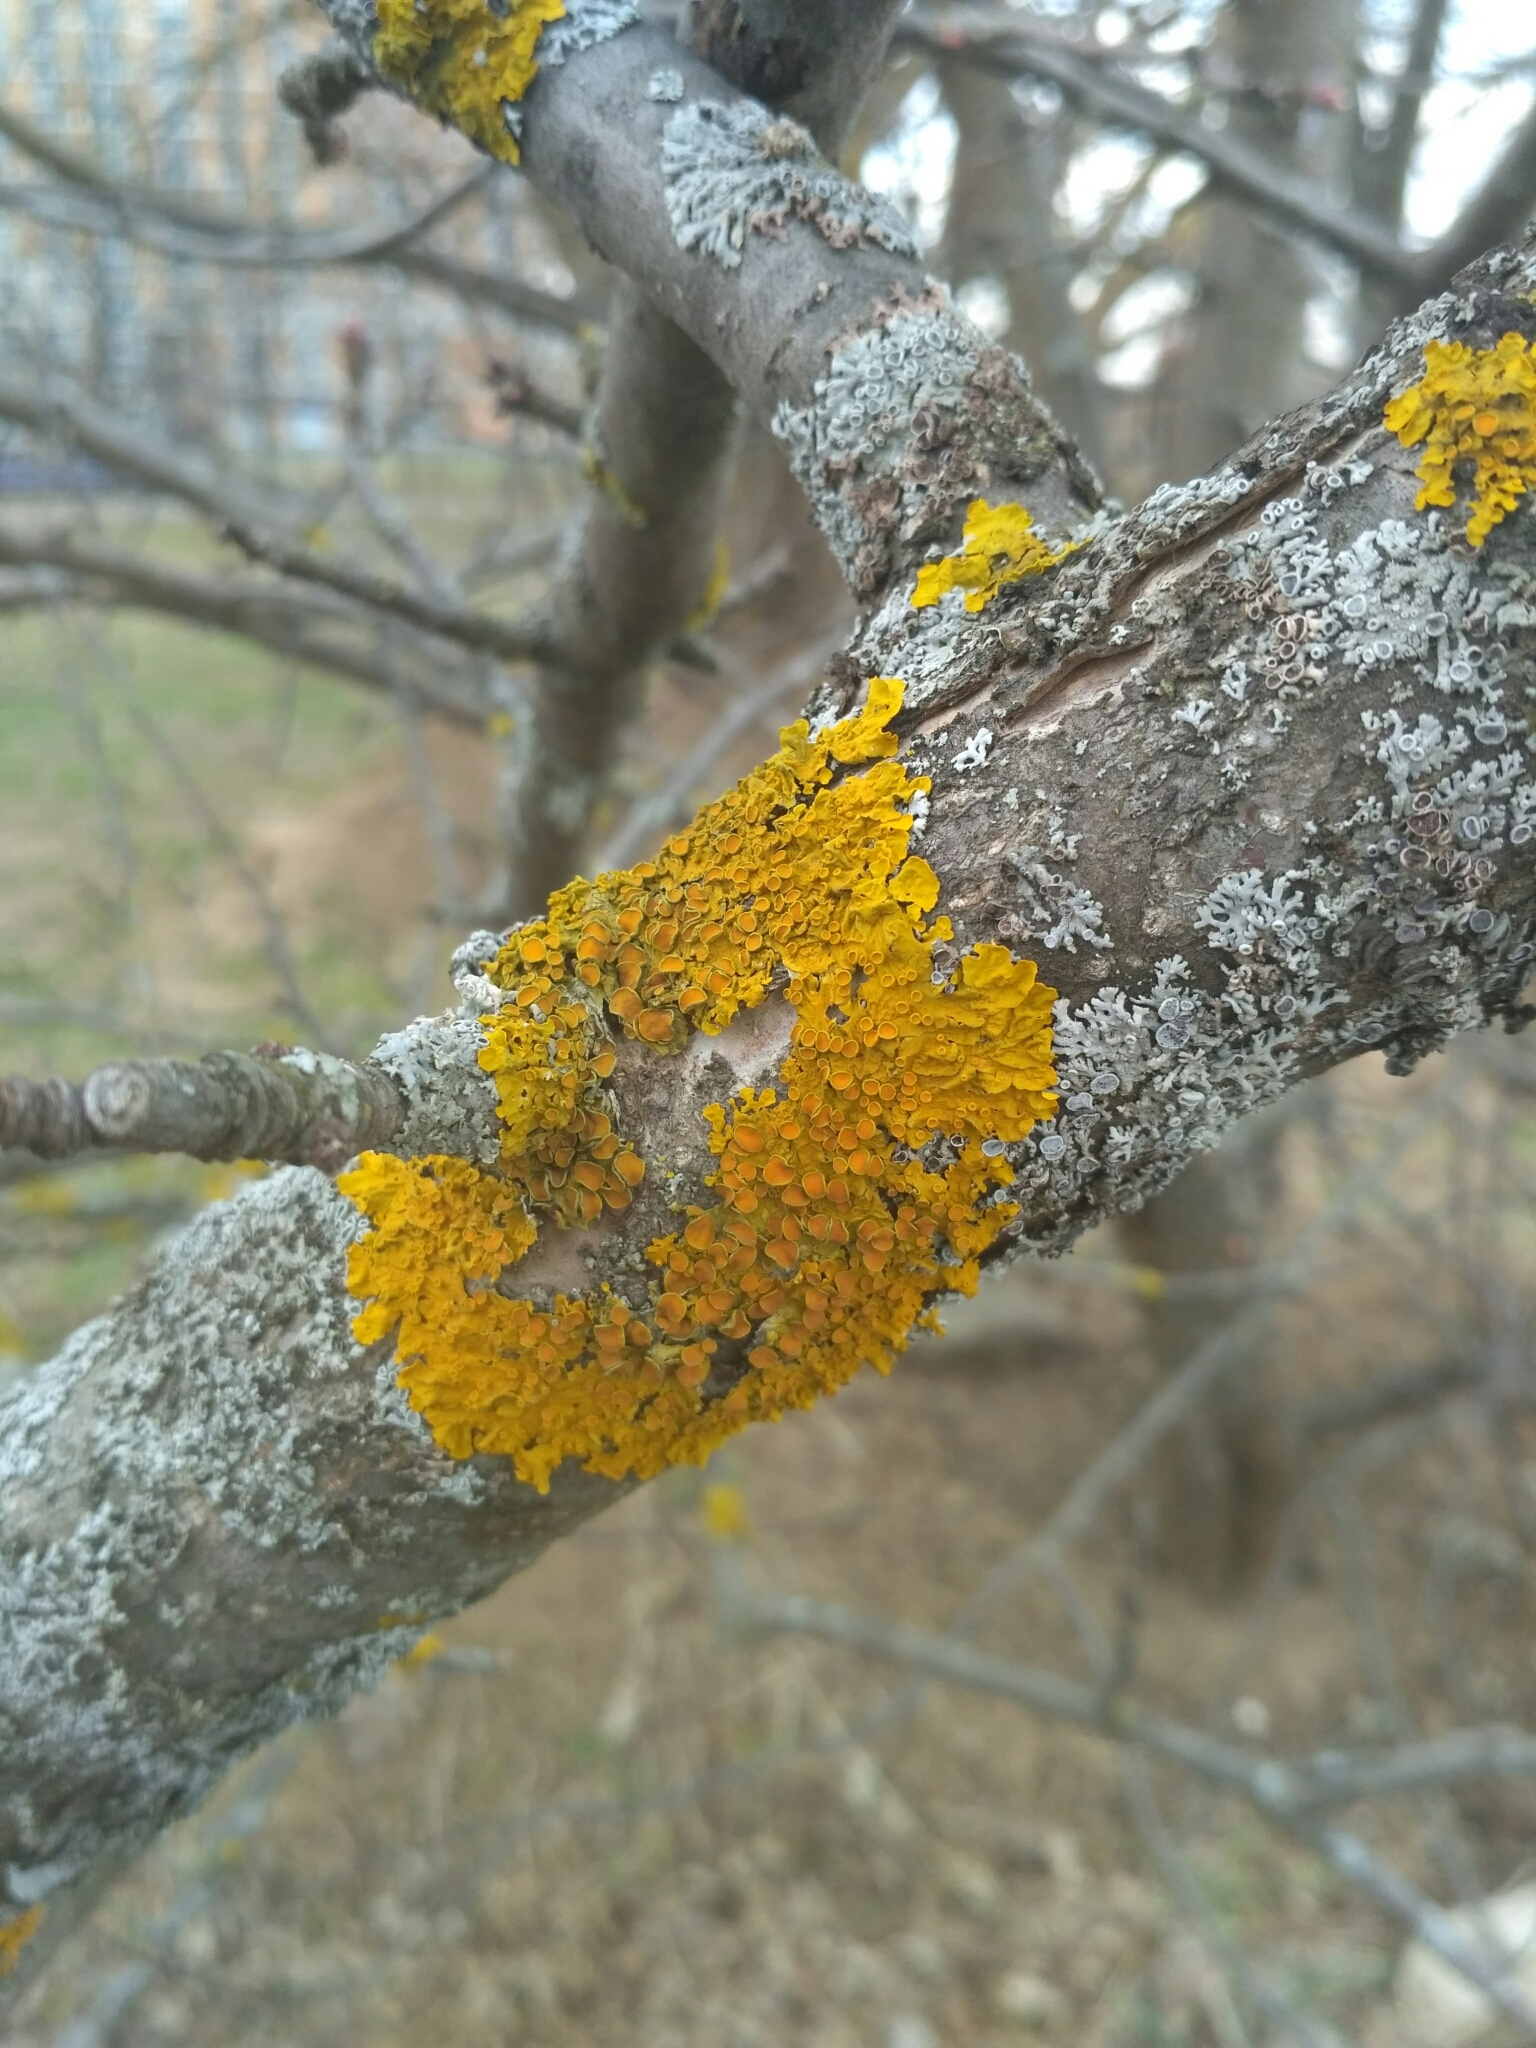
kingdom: Fungi
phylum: Ascomycota
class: Lecanoromycetes
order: Teloschistales
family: Teloschistaceae
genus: Xanthoria
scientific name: Xanthoria parietina
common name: Common orange lichen
